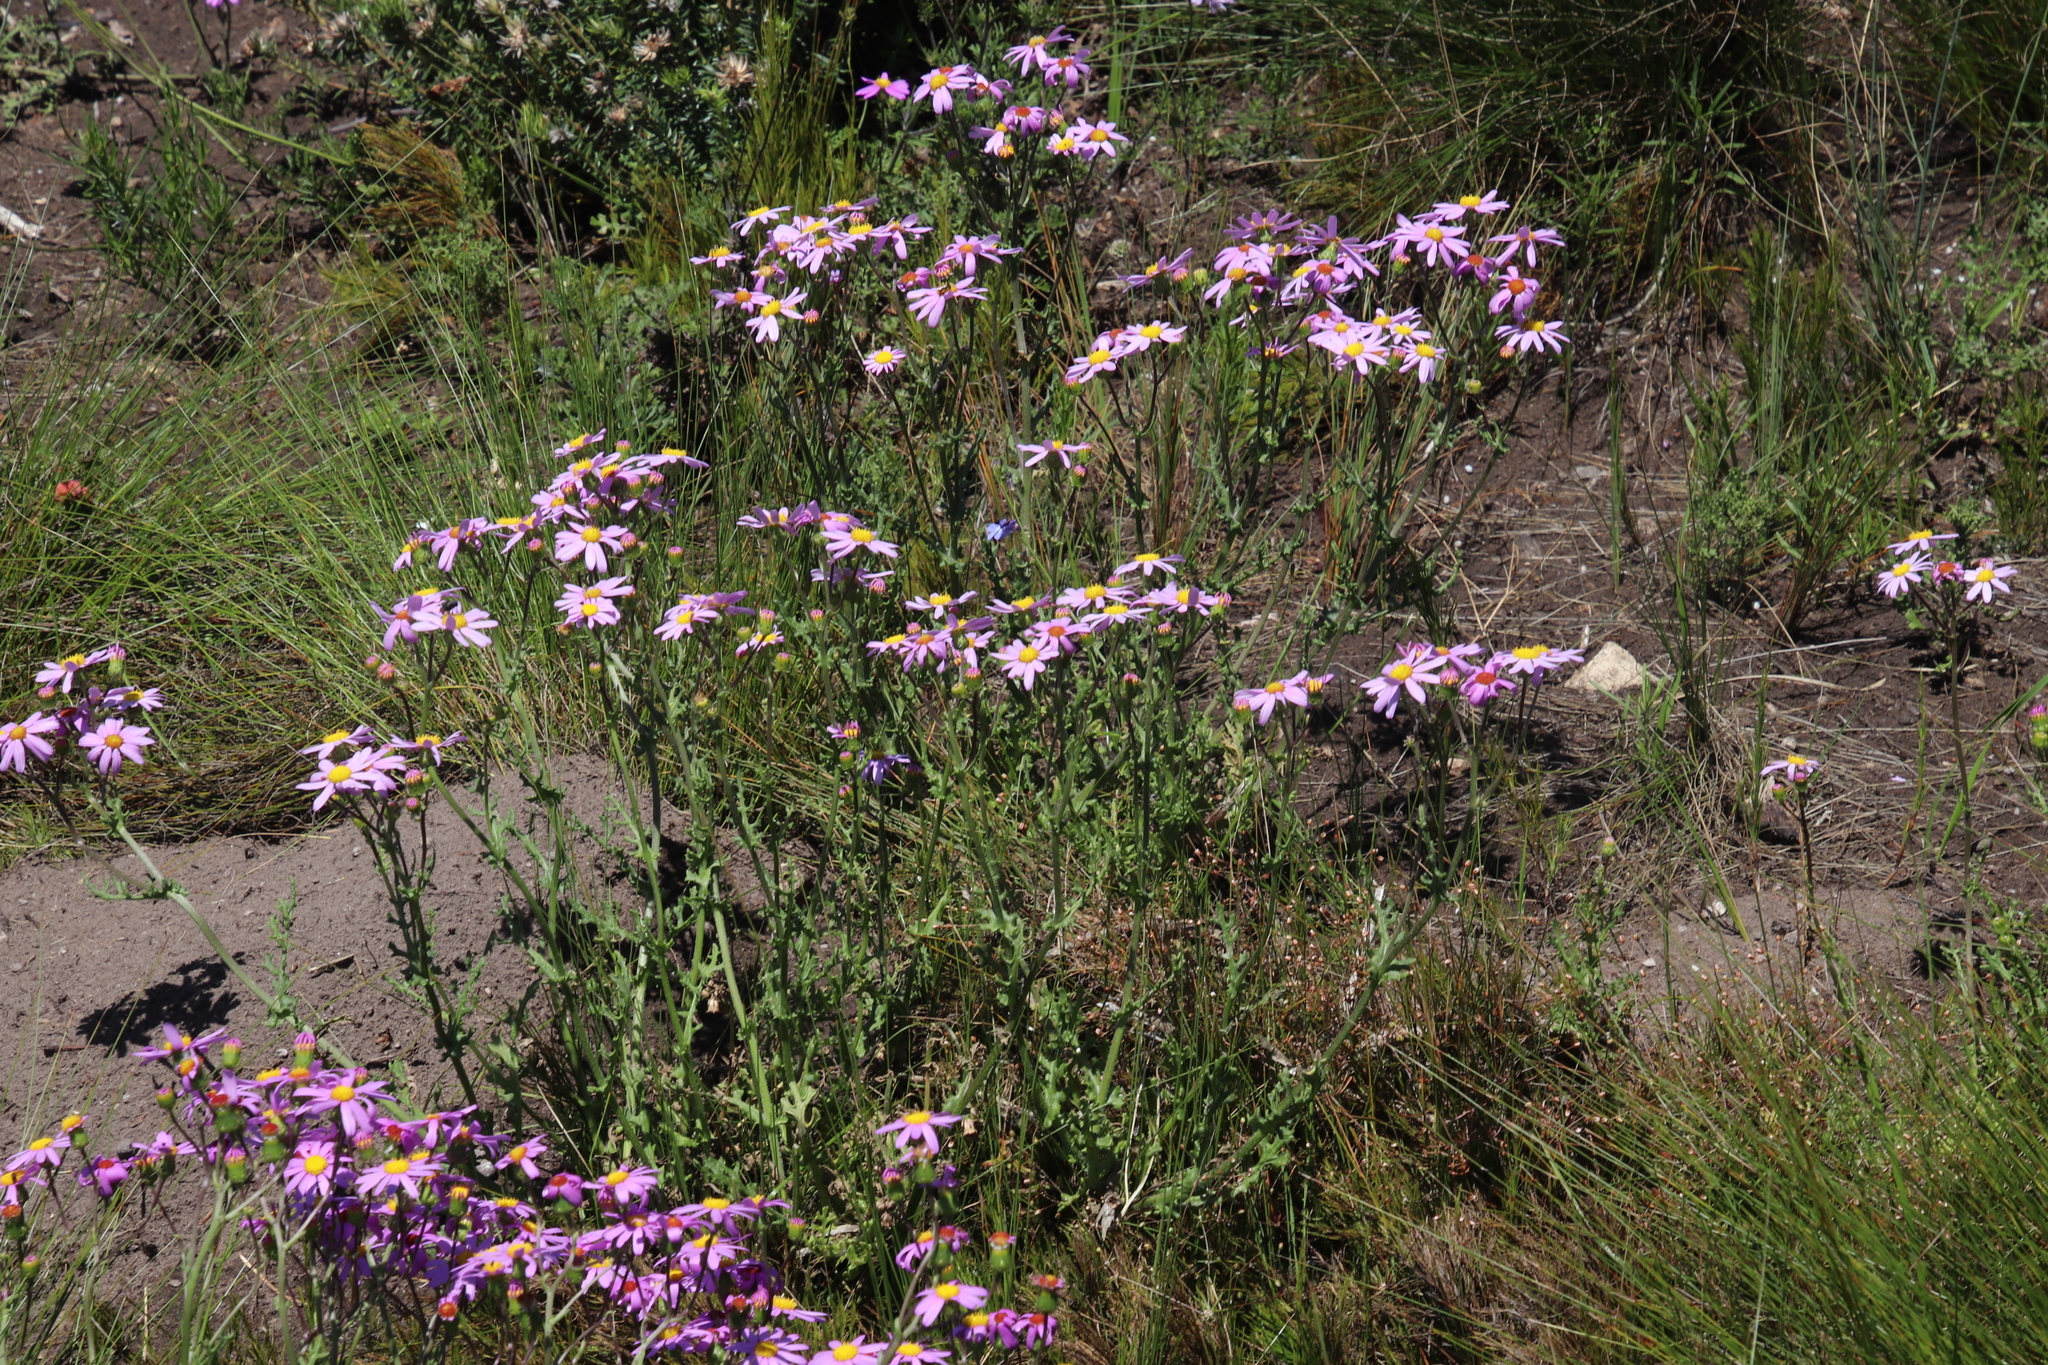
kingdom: Plantae
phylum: Tracheophyta
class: Magnoliopsida
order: Asterales
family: Asteraceae
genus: Senecio
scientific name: Senecio elegans
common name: Purple groundsel
